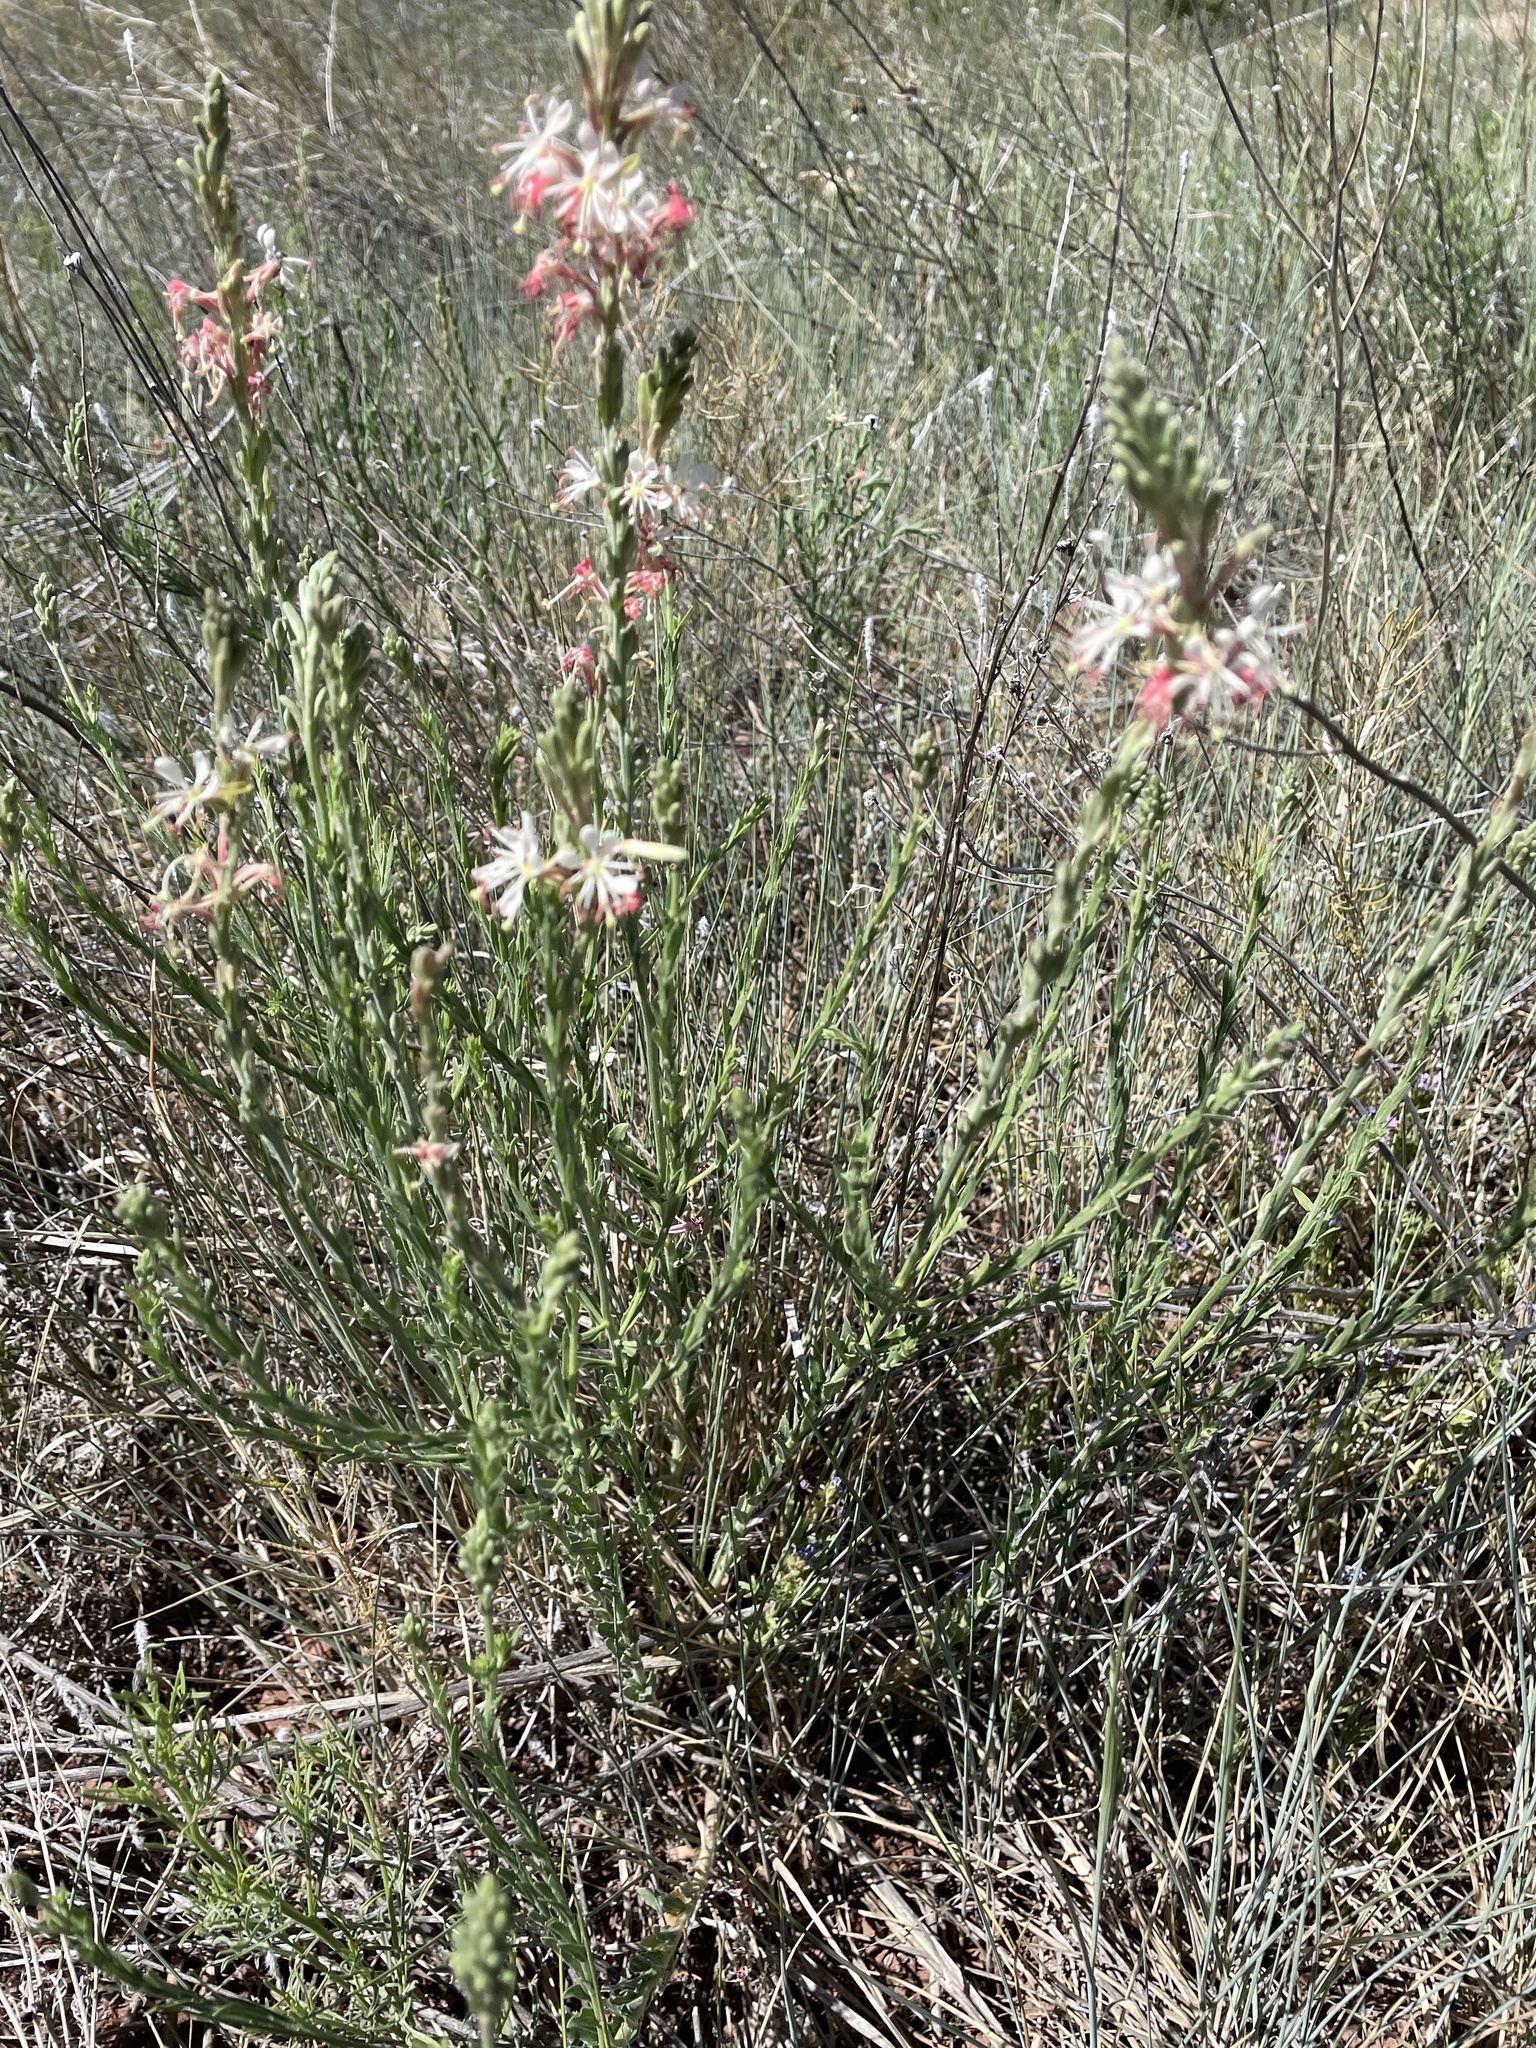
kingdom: Plantae
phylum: Tracheophyta
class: Magnoliopsida
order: Myrtales
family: Onagraceae
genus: Oenothera
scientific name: Oenothera suffrutescens
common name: Scarlet beeblossom
